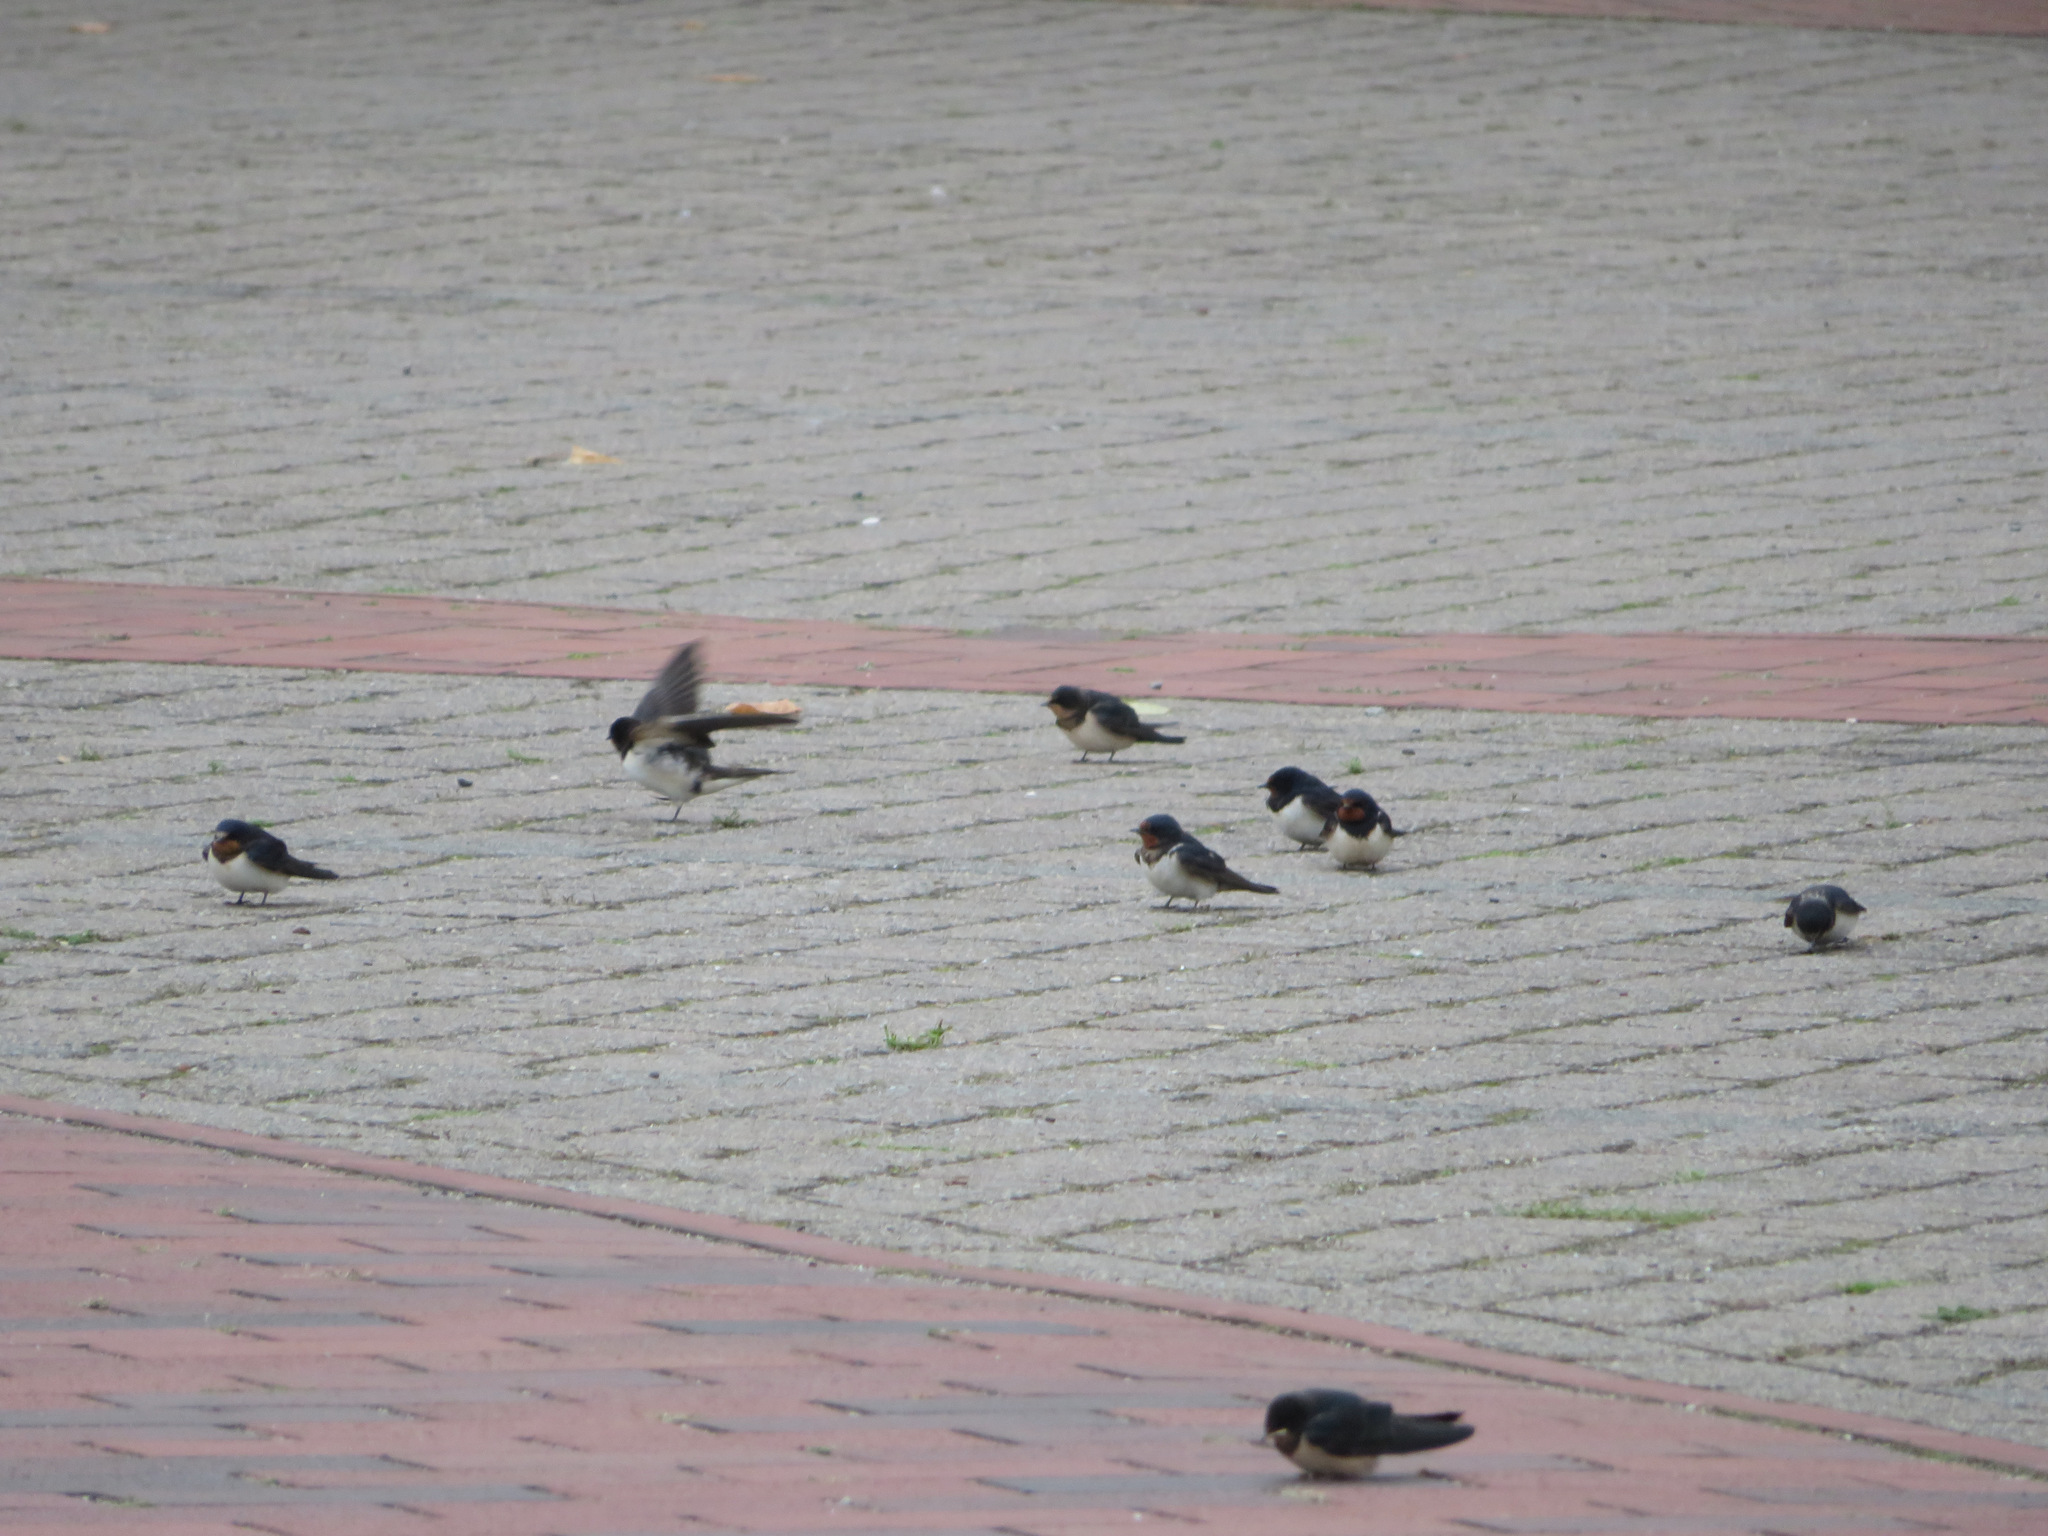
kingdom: Animalia
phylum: Chordata
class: Aves
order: Passeriformes
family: Hirundinidae
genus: Hirundo
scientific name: Hirundo rustica
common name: Barn swallow
